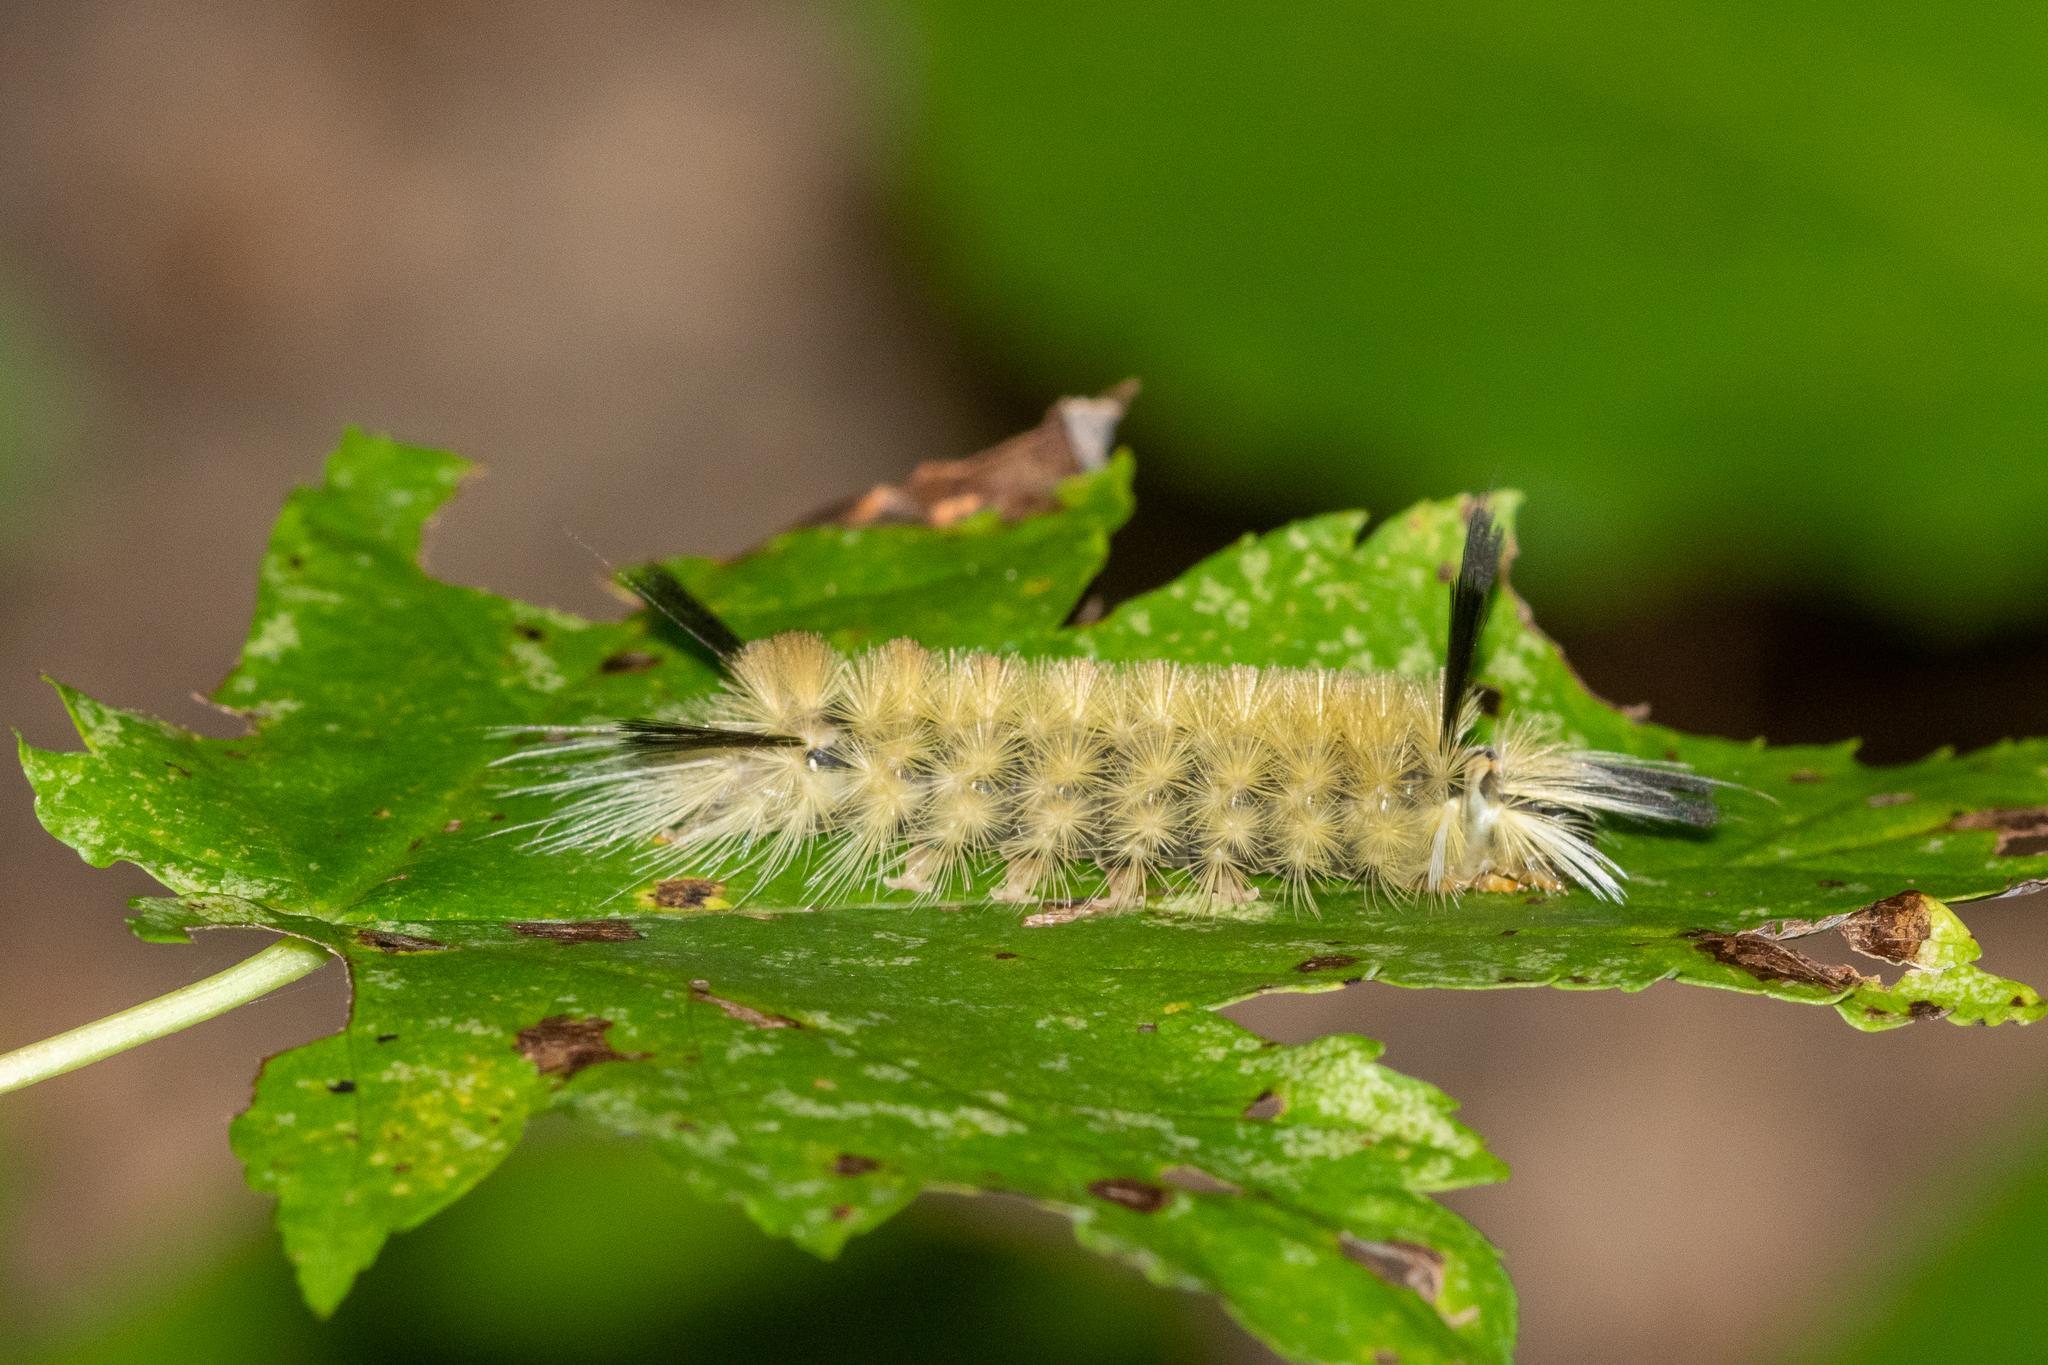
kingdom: Animalia
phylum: Arthropoda
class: Insecta
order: Lepidoptera
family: Erebidae
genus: Halysidota
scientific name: Halysidota tessellaris
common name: Banded tussock moth
